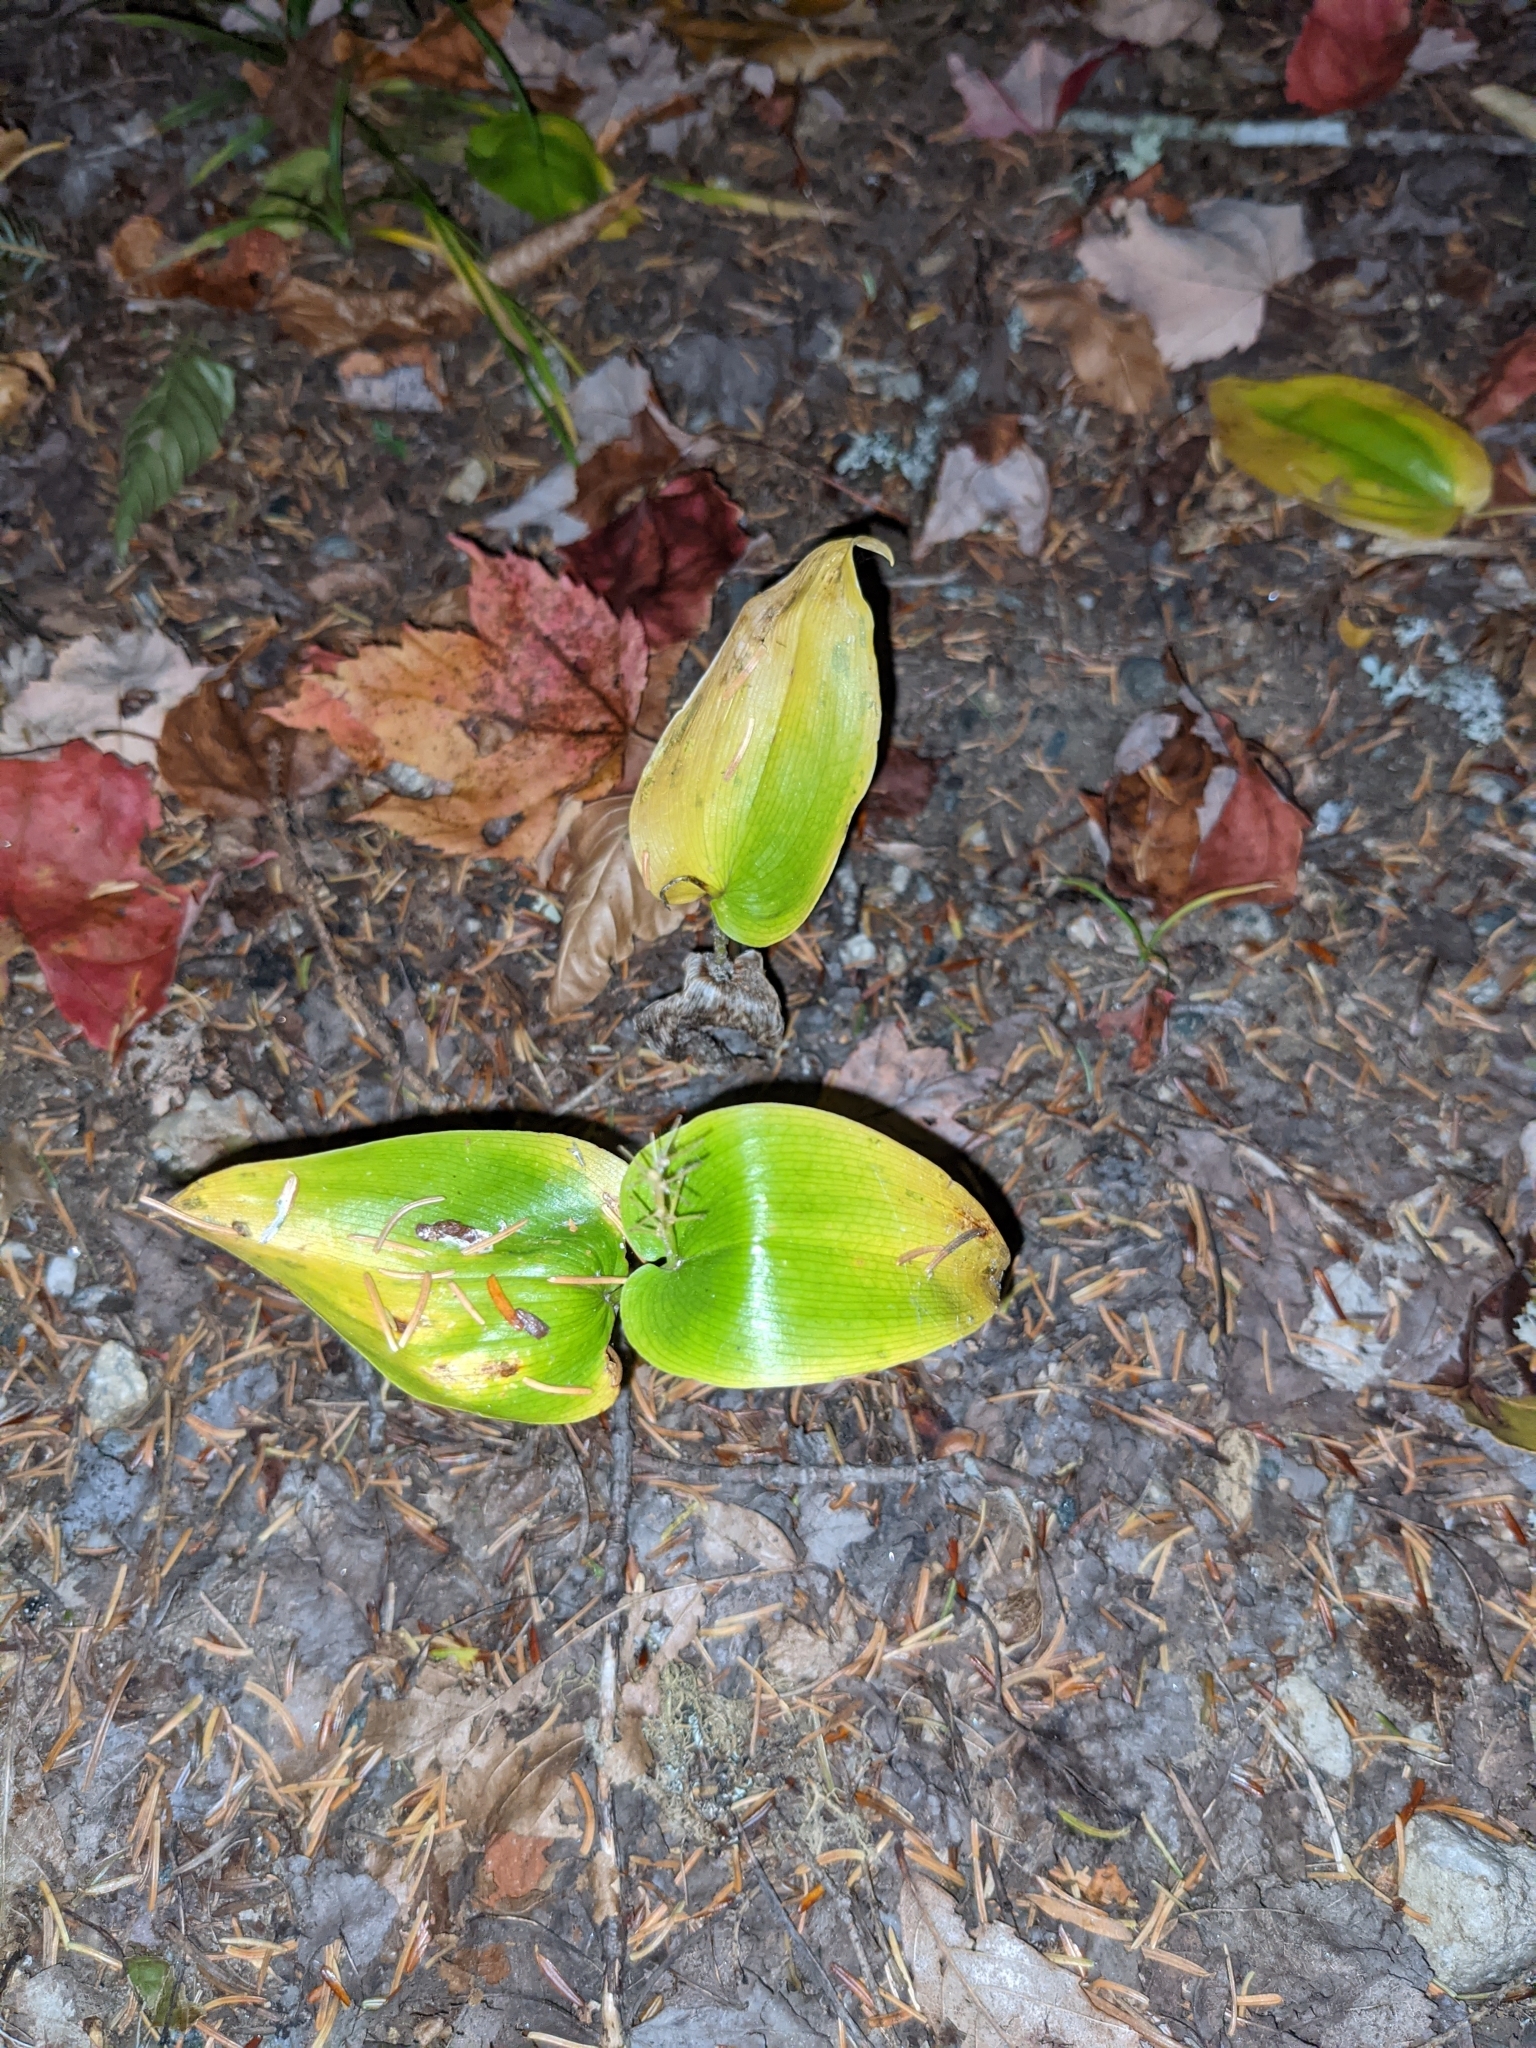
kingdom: Plantae
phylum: Tracheophyta
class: Liliopsida
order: Asparagales
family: Asparagaceae
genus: Maianthemum
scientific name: Maianthemum canadense
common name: False lily-of-the-valley
